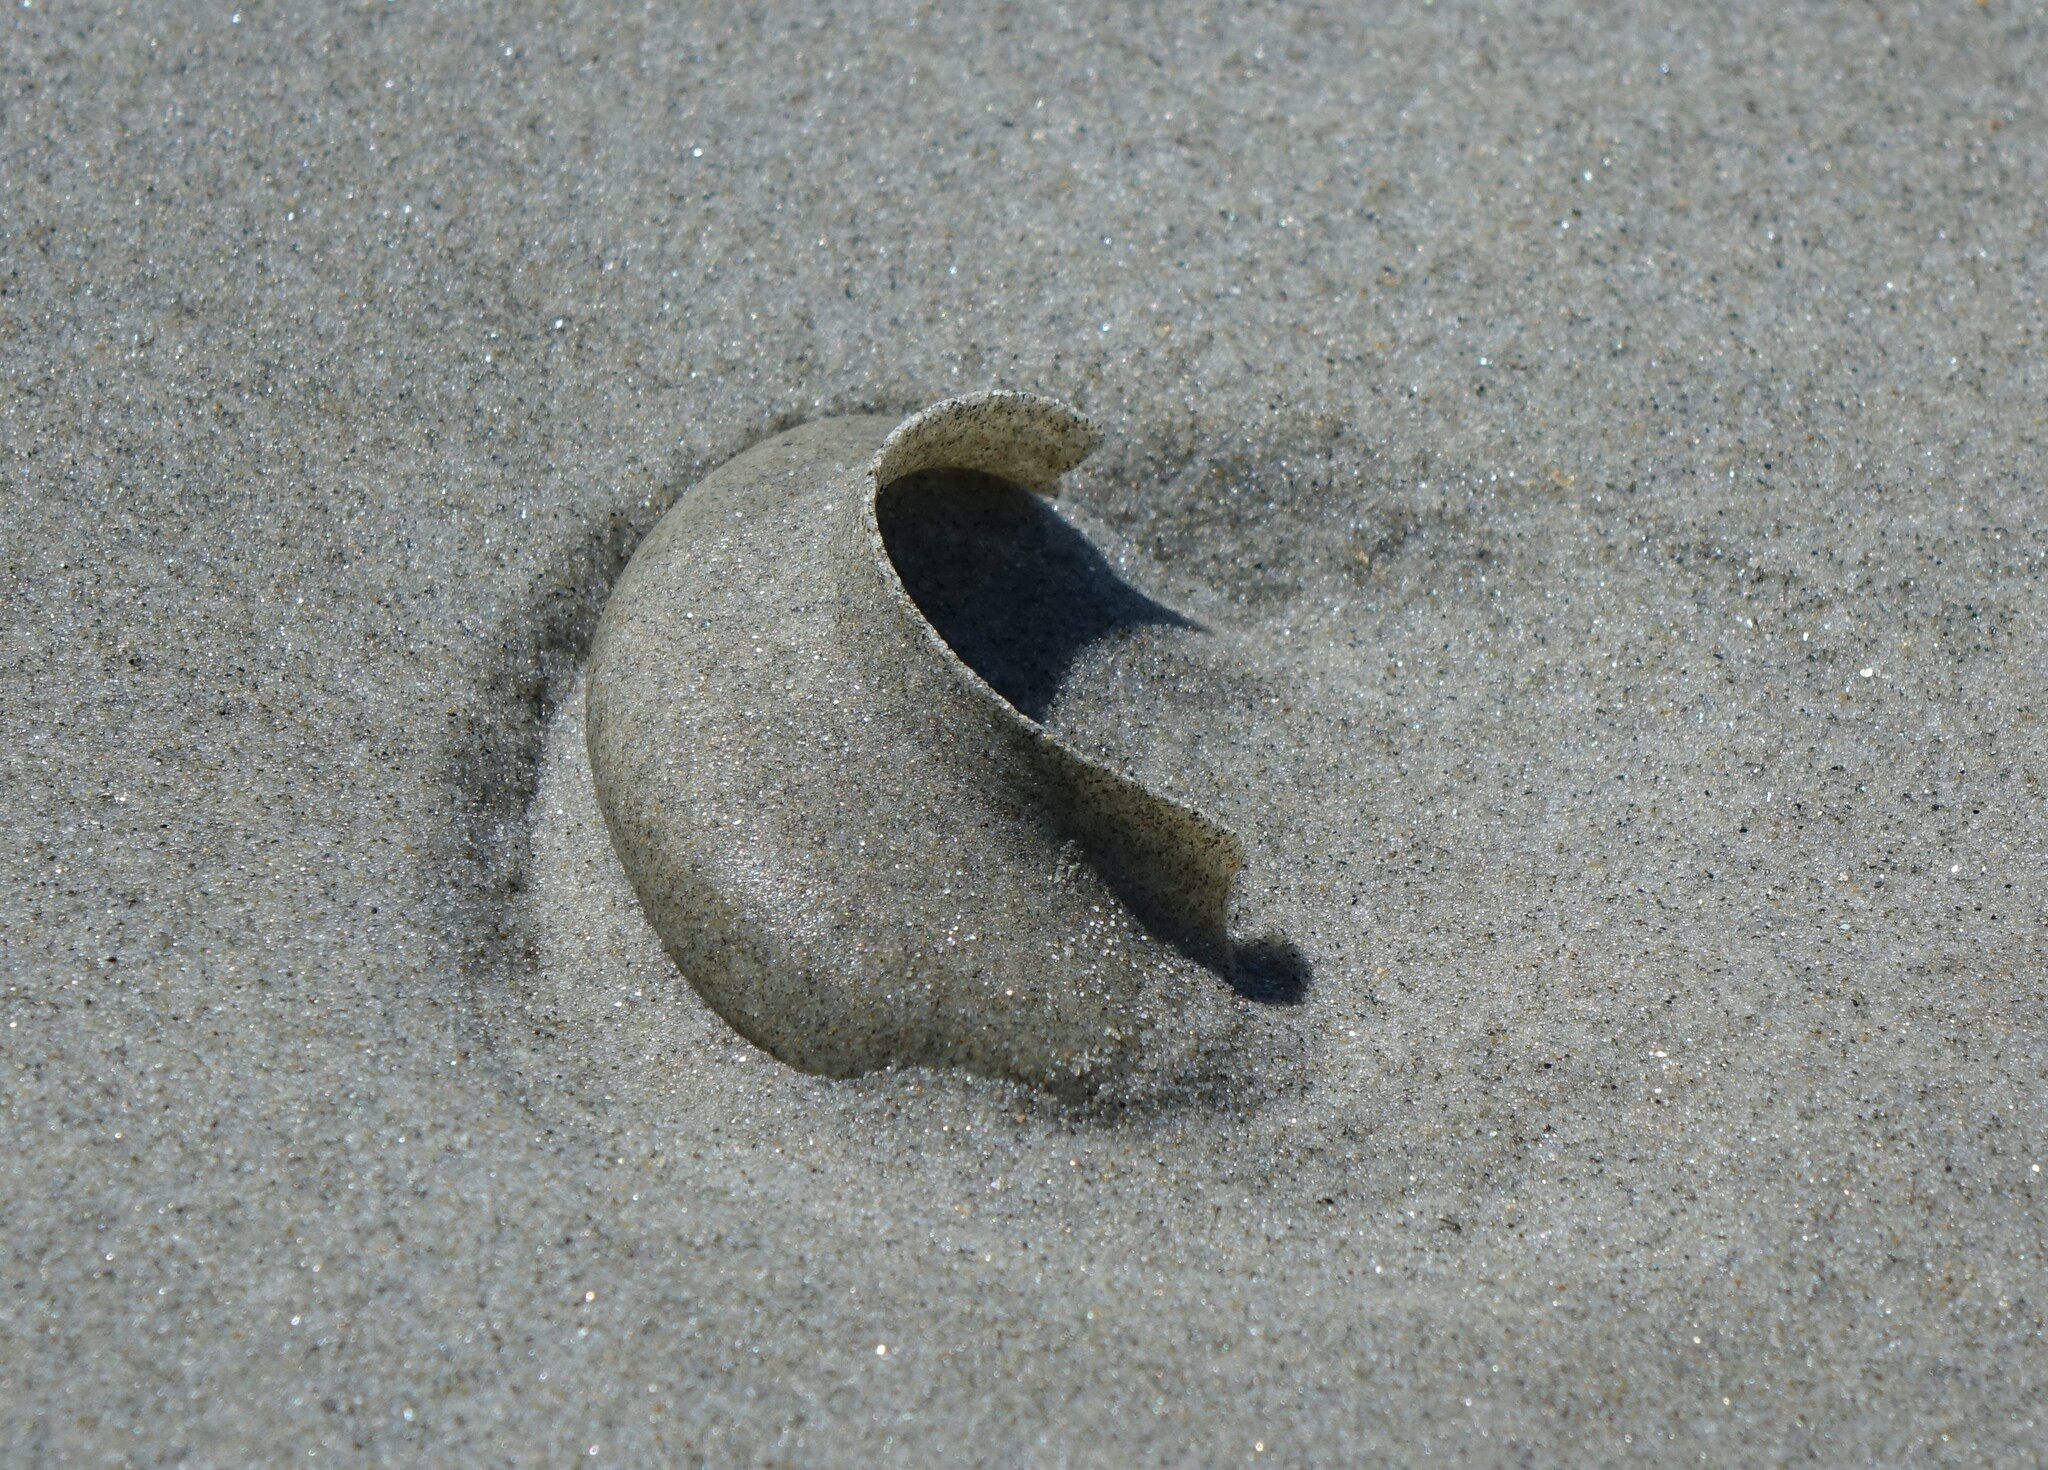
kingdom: Animalia
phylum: Mollusca
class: Gastropoda
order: Littorinimorpha
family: Naticidae
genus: Tanea
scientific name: Tanea zelandica
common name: New zealand moonsnail
